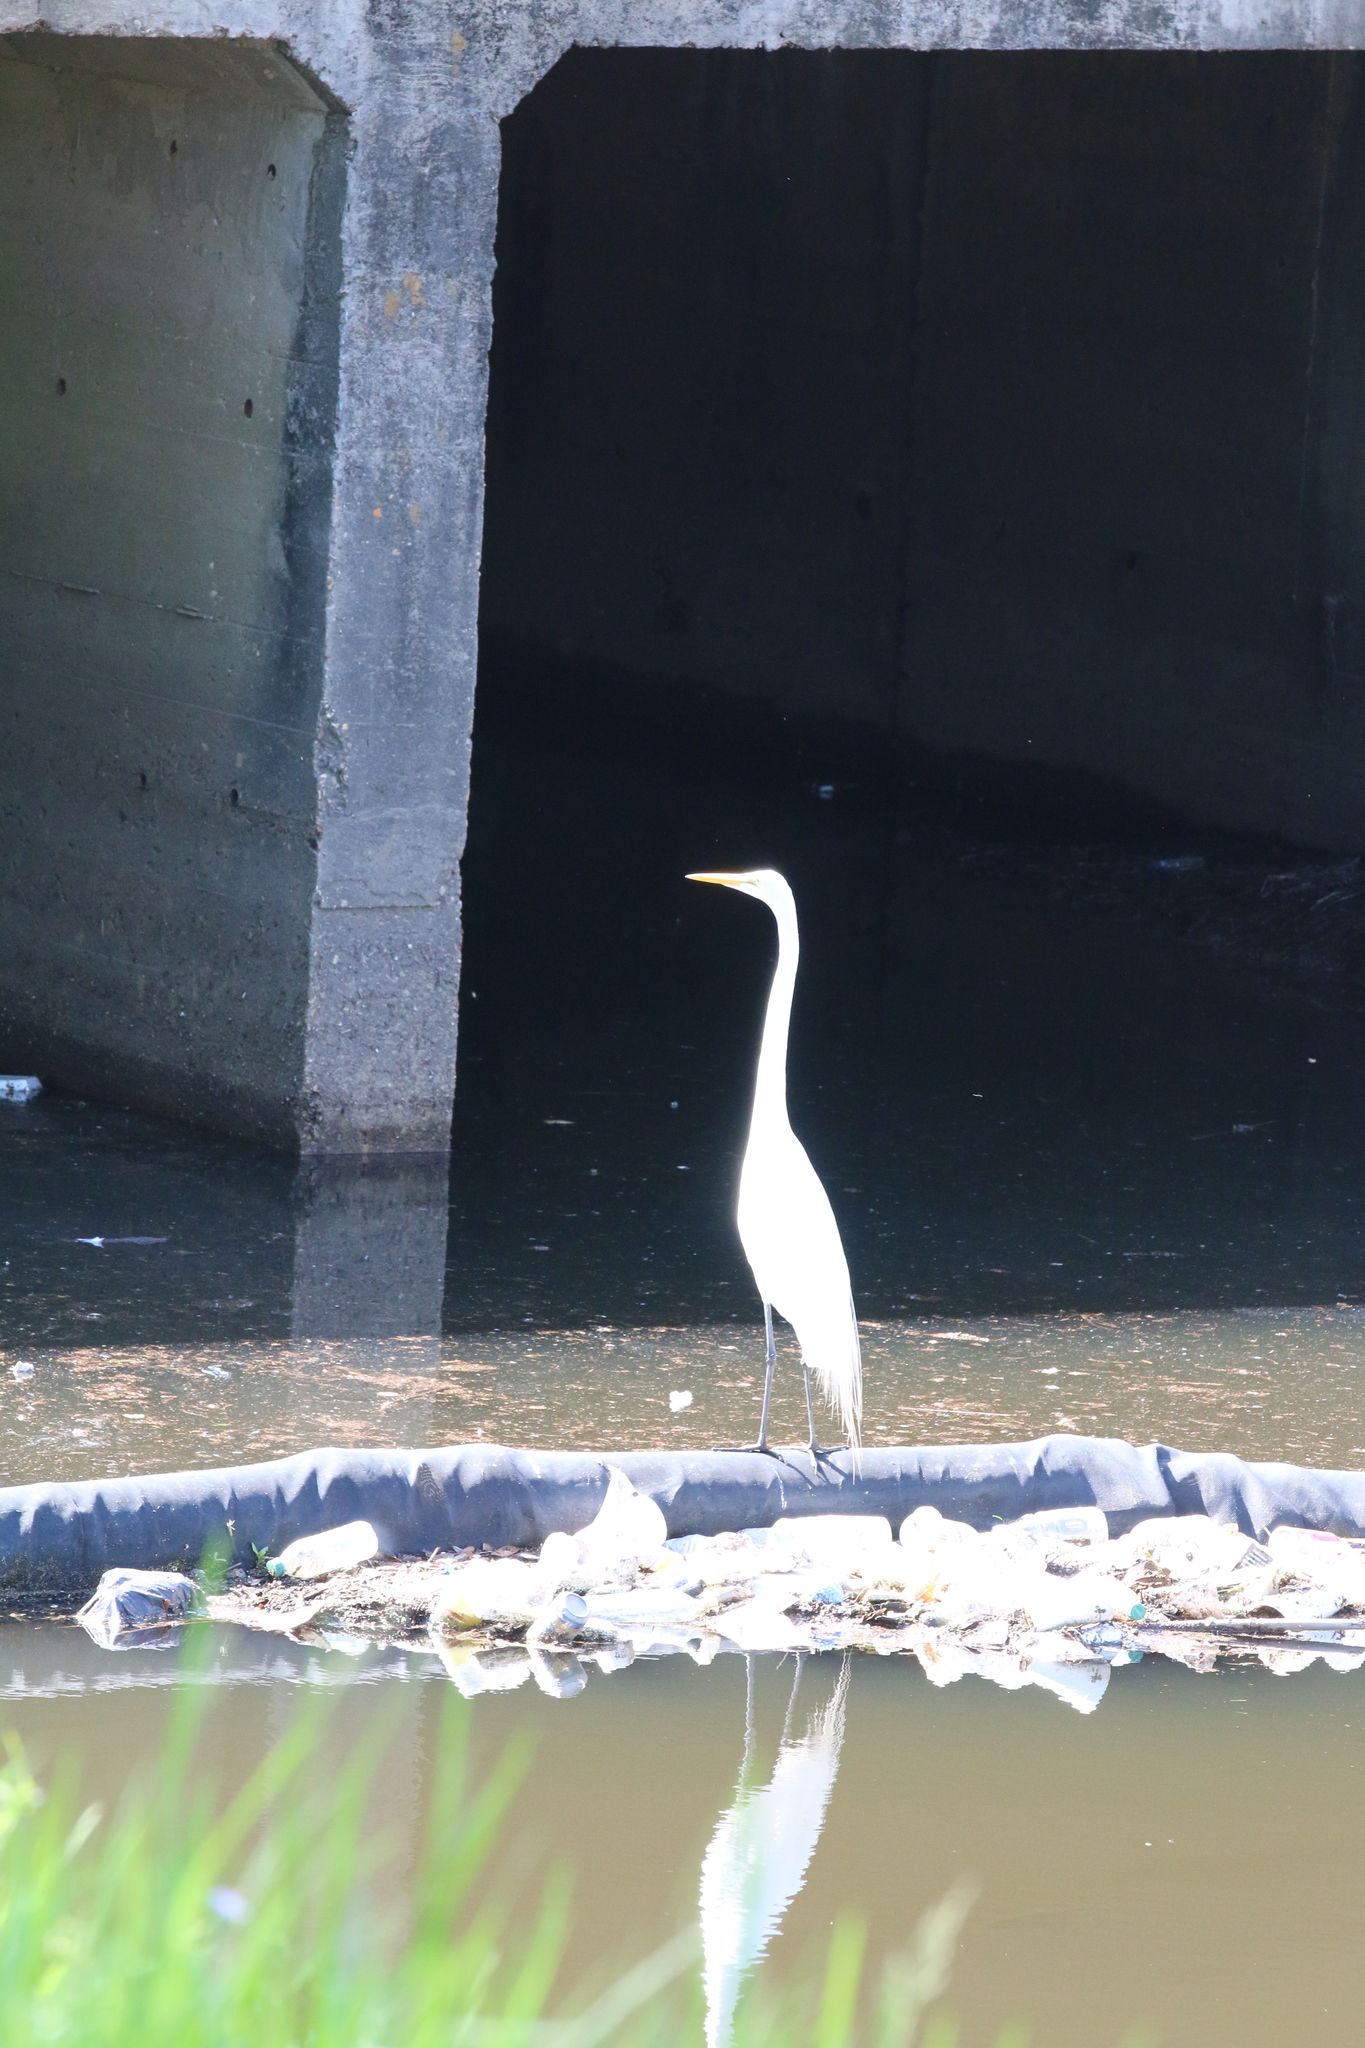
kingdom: Animalia
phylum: Chordata
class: Aves
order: Pelecaniformes
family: Ardeidae
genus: Ardea
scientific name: Ardea alba
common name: Great egret
